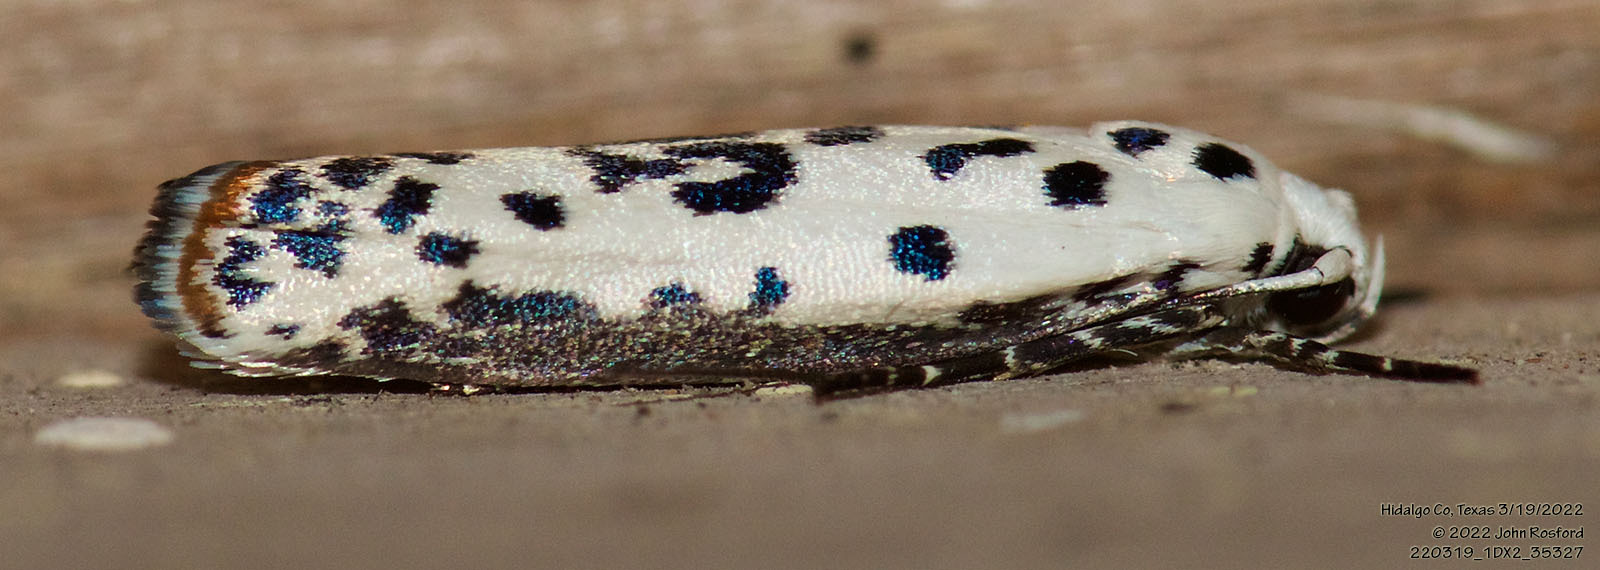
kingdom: Animalia
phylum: Arthropoda
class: Insecta
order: Lepidoptera
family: Ethmiidae
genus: Ethmia
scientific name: Ethmia bittenella
